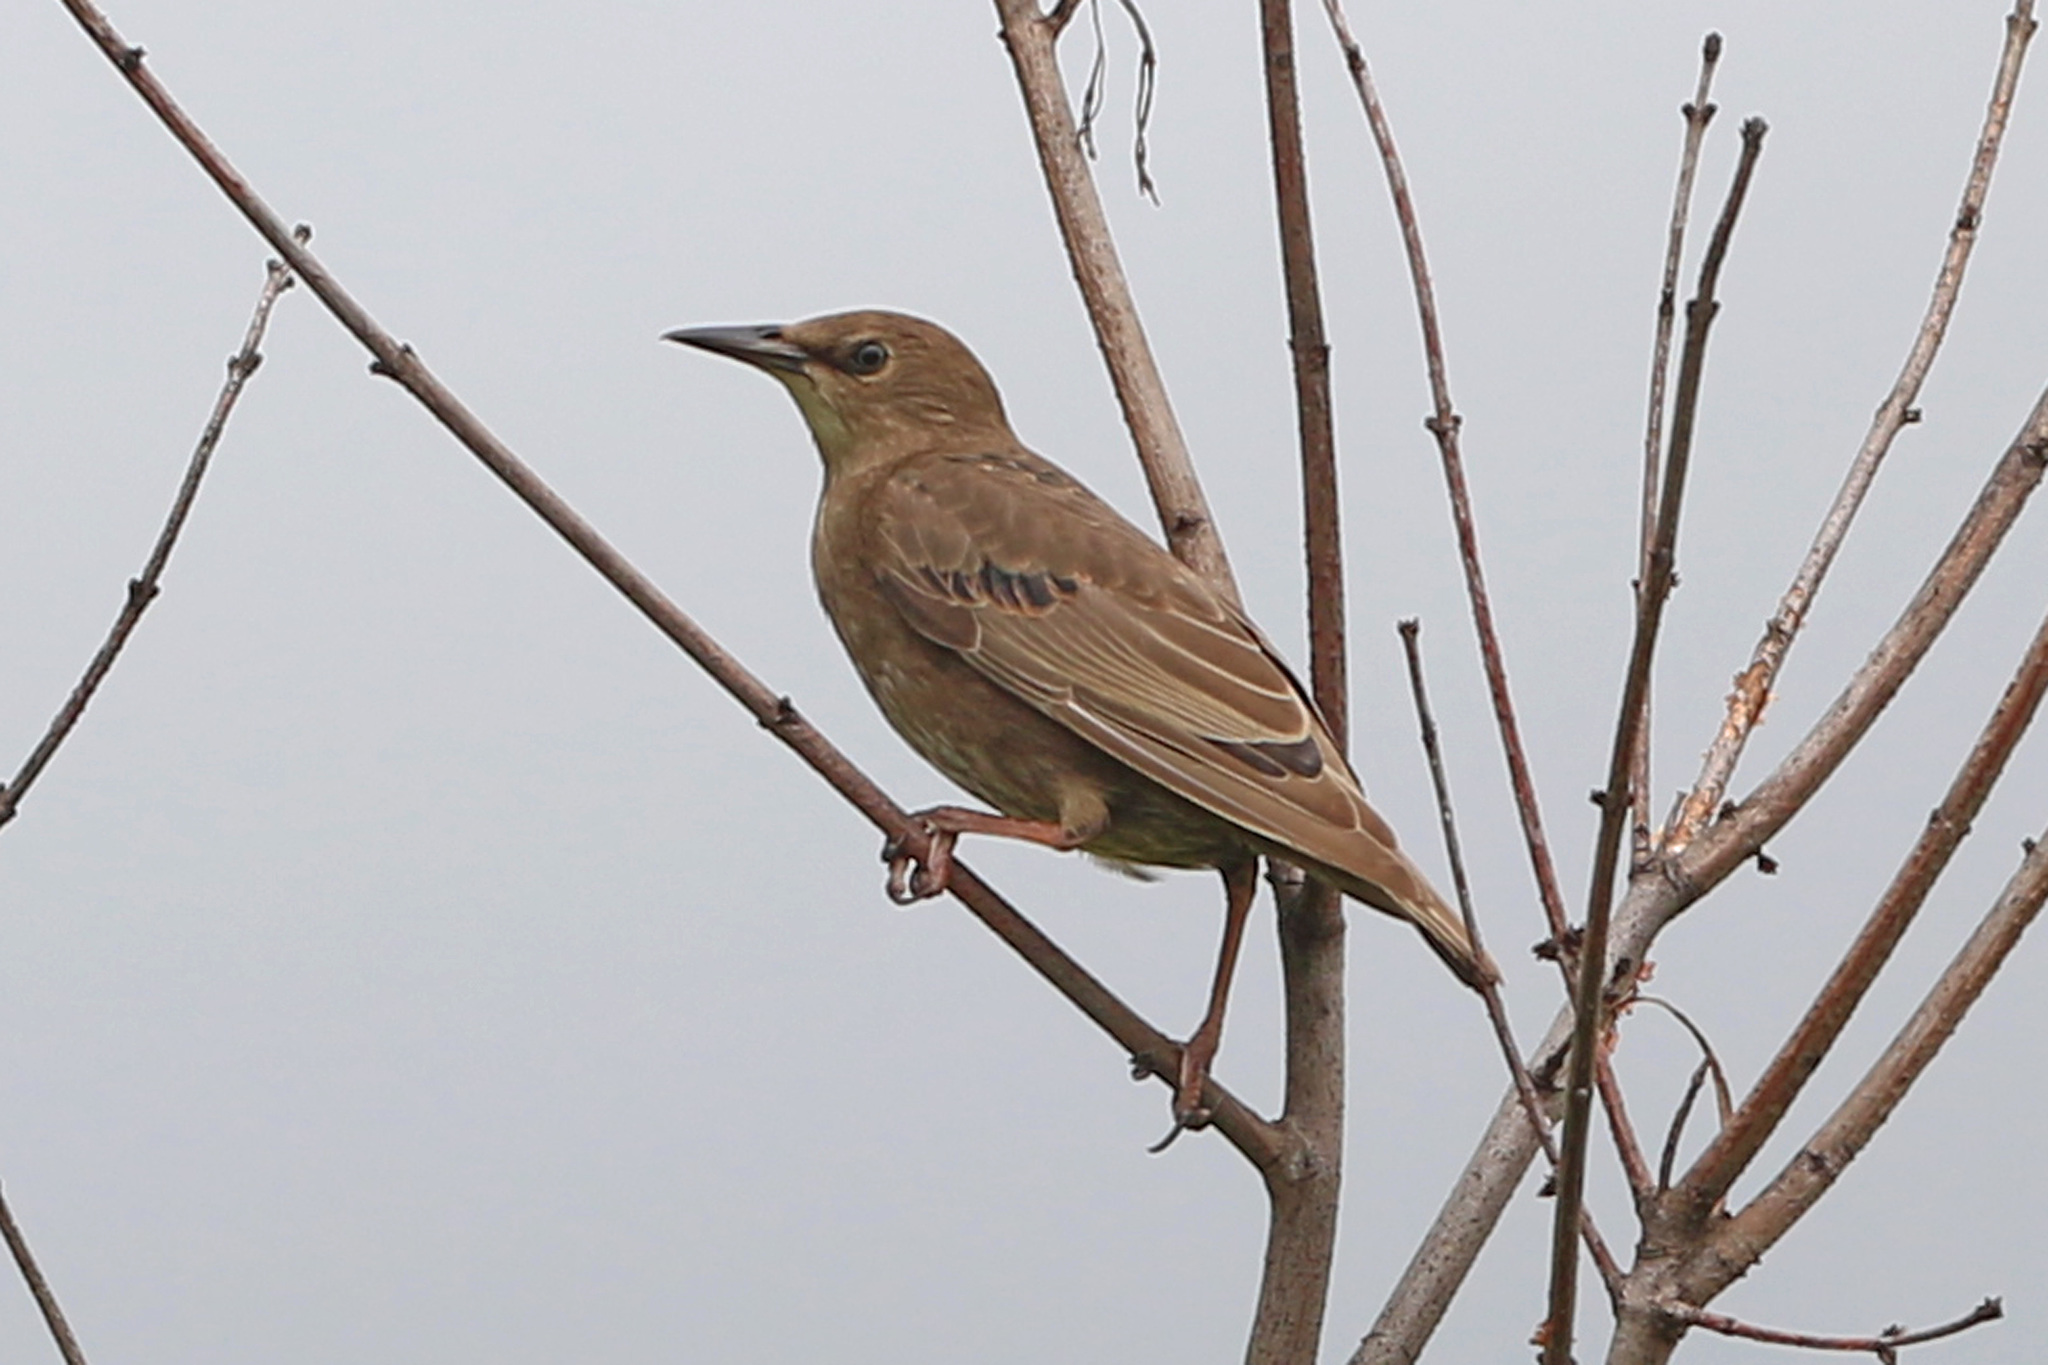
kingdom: Animalia
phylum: Chordata
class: Aves
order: Passeriformes
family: Sturnidae
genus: Sturnus
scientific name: Sturnus vulgaris
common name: Common starling
